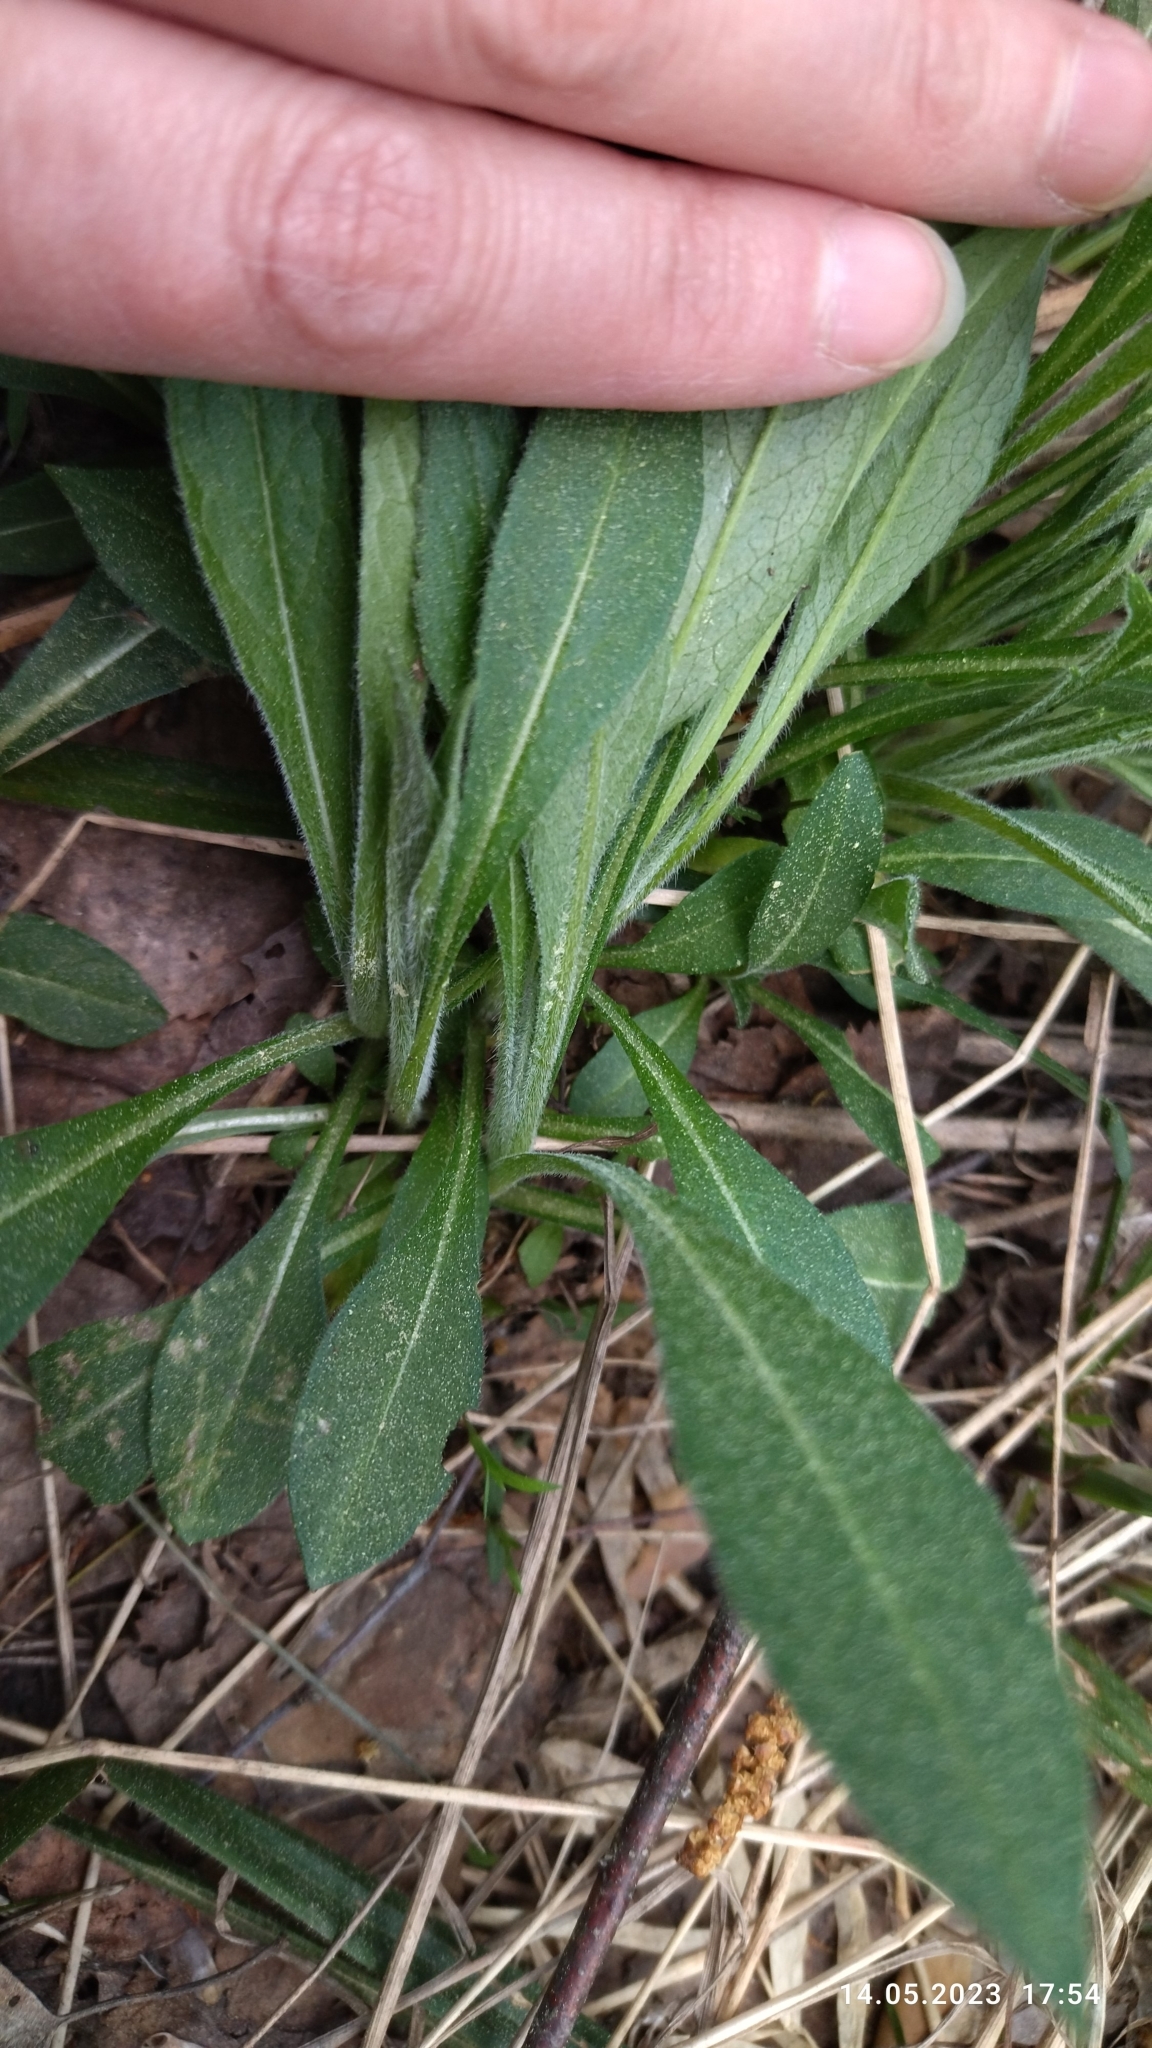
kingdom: Plantae
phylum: Tracheophyta
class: Magnoliopsida
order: Dipsacales
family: Caprifoliaceae
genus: Knautia
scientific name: Knautia arvensis
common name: Field scabiosa
